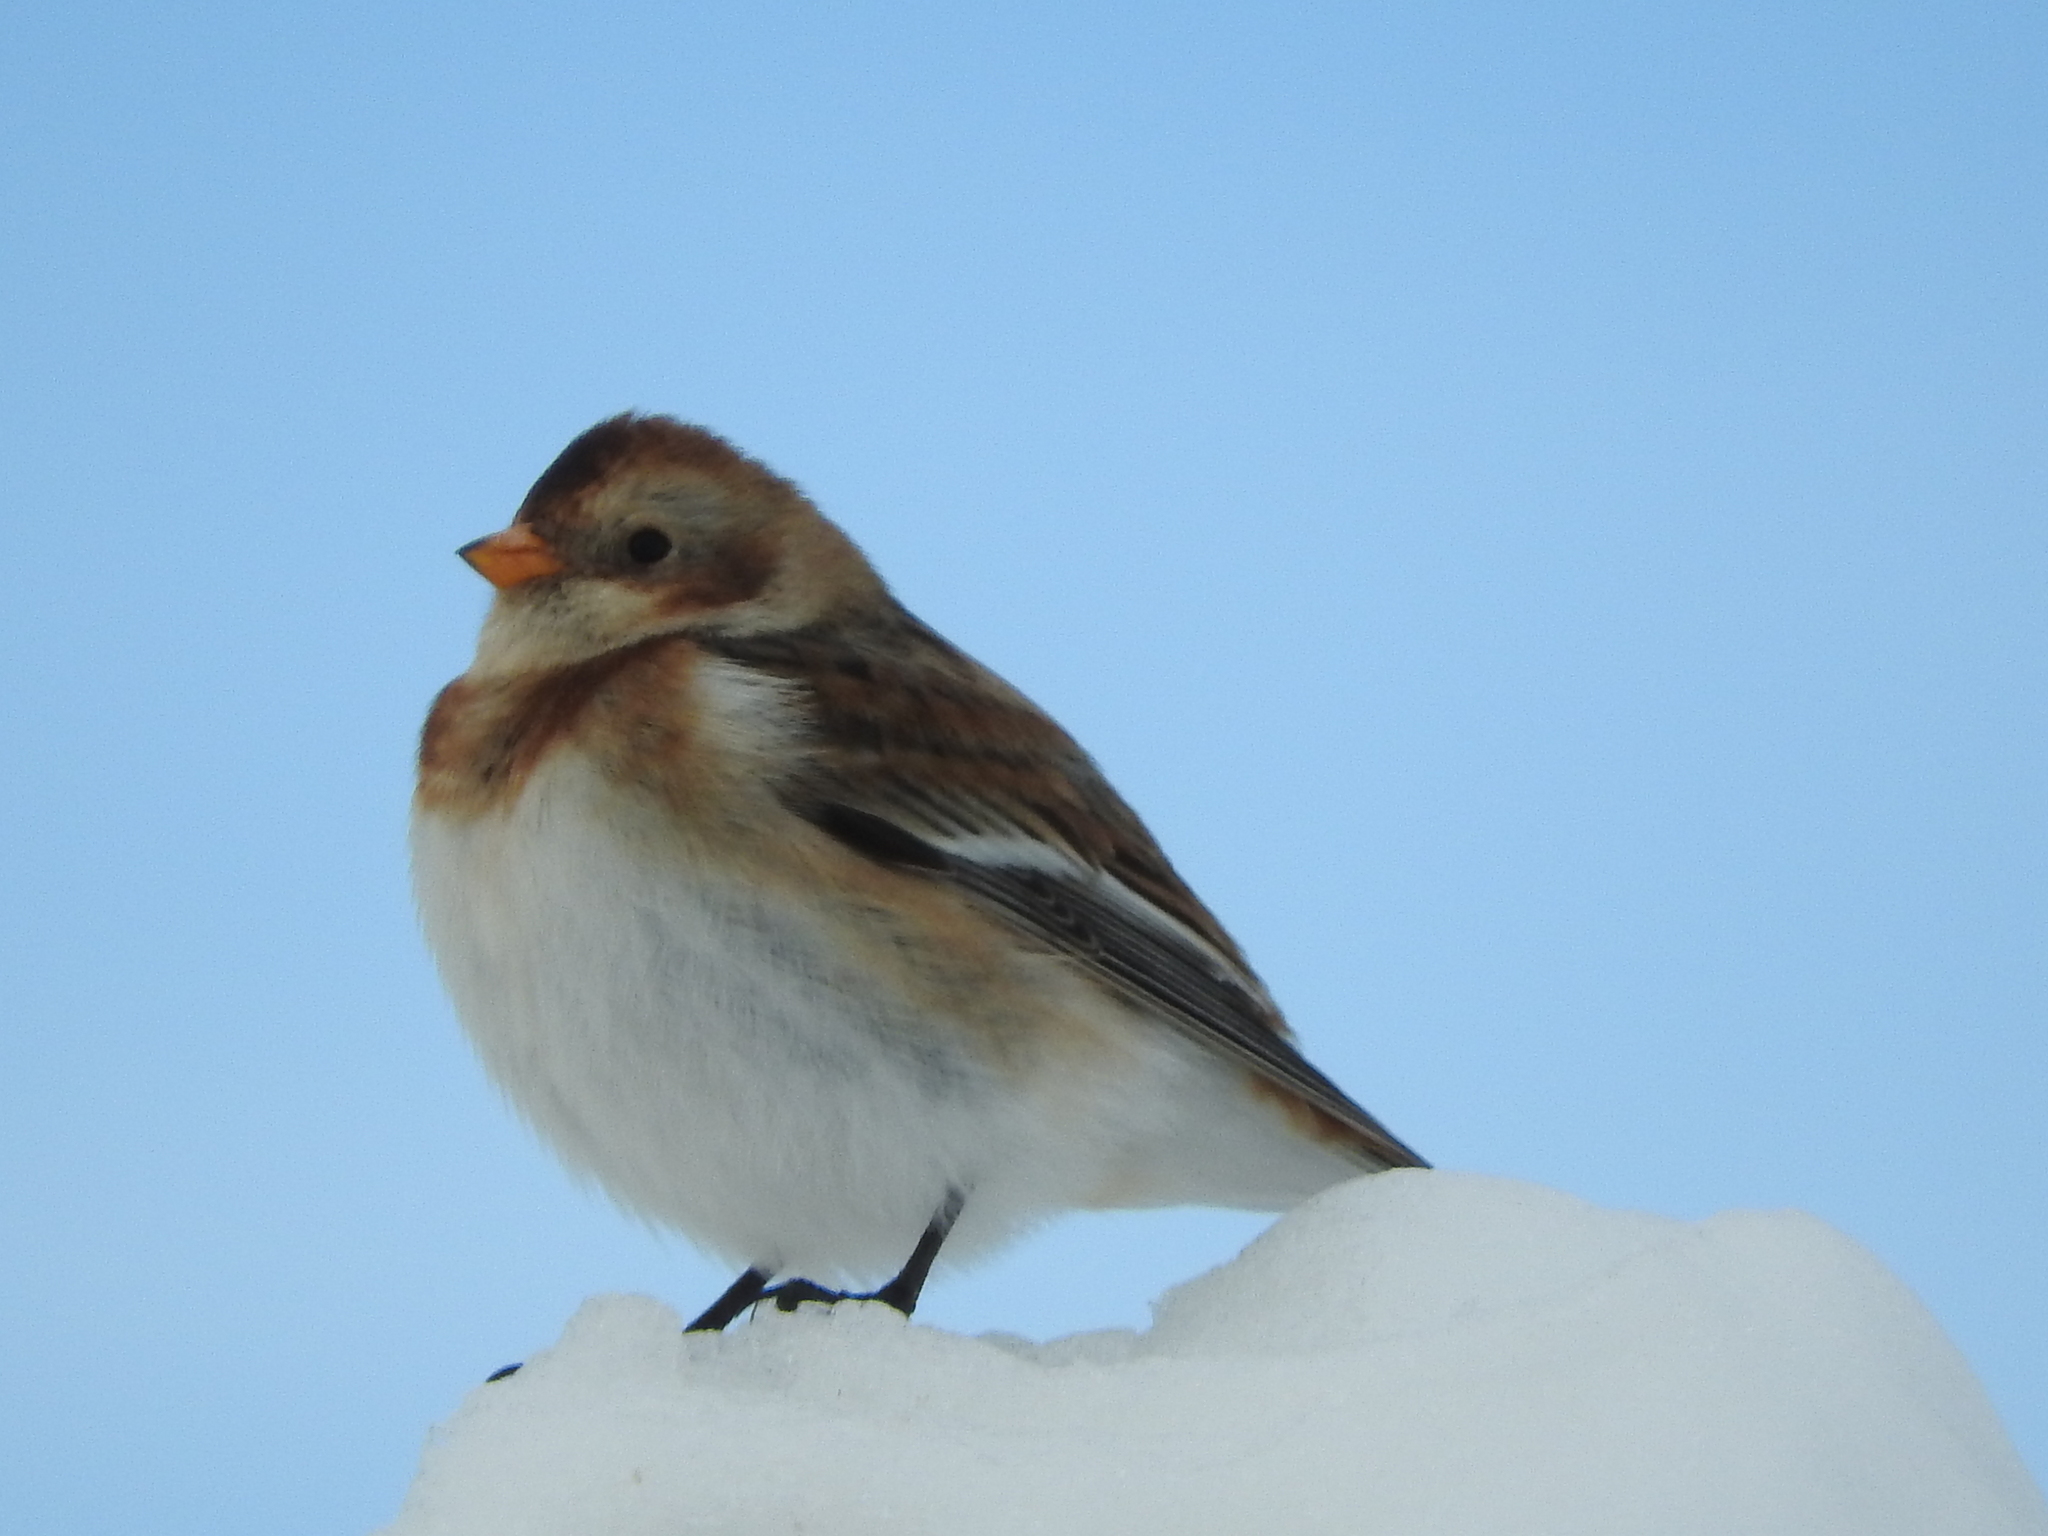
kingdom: Animalia
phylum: Chordata
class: Aves
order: Passeriformes
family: Calcariidae
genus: Plectrophenax
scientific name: Plectrophenax nivalis
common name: Snow bunting
